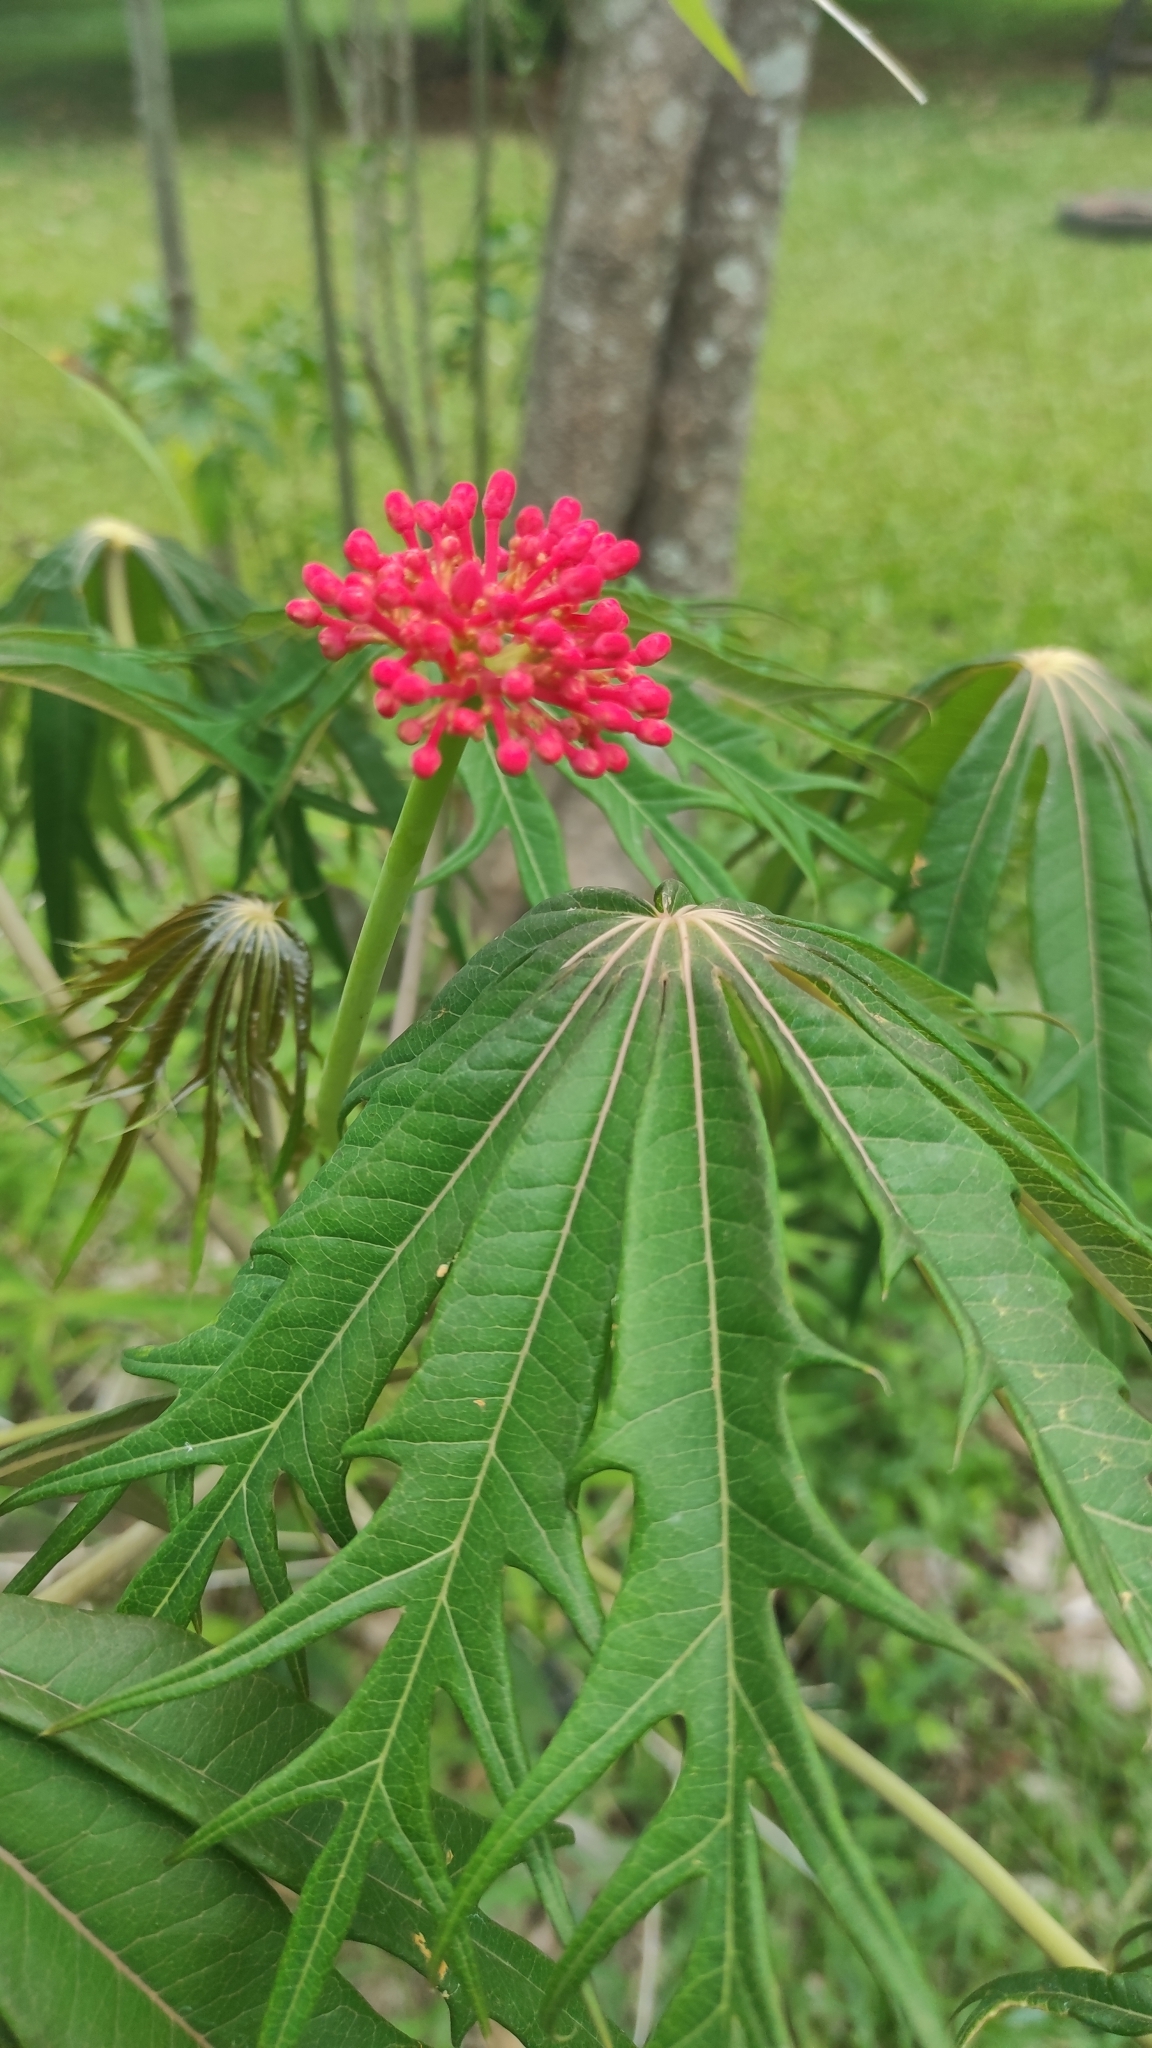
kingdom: Plantae
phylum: Tracheophyta
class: Magnoliopsida
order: Malpighiales
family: Euphorbiaceae
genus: Jatropha
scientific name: Jatropha multifida
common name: Coralbush
